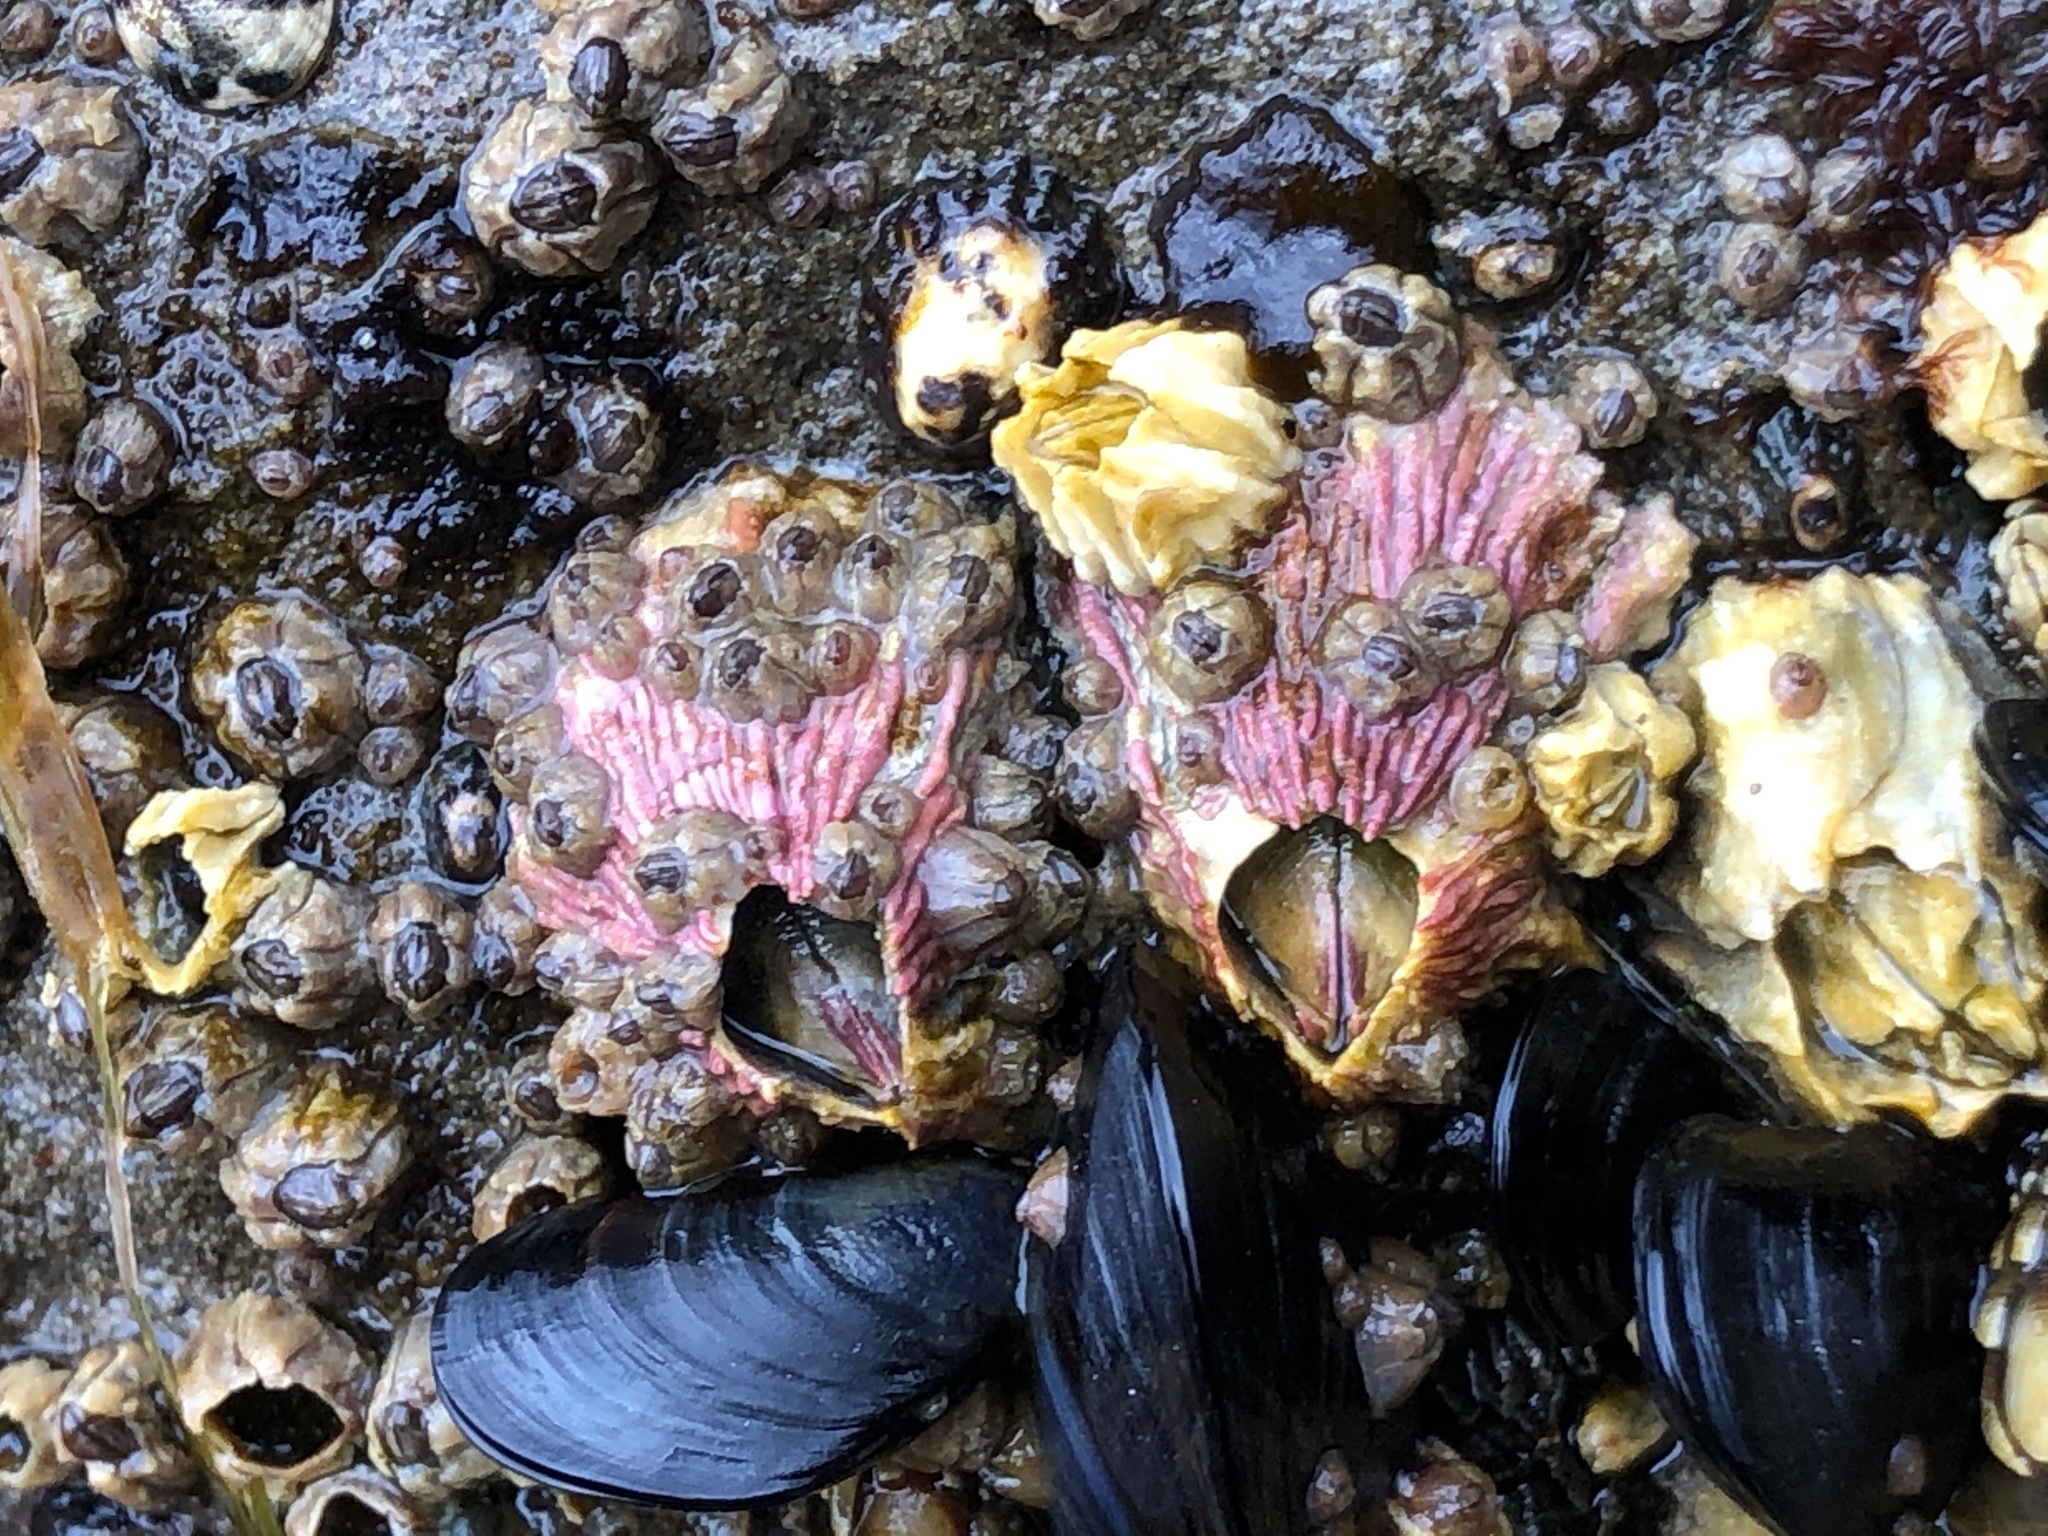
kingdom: Animalia
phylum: Arthropoda
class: Maxillopoda
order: Sessilia
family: Tetraclitidae
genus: Tetraclita
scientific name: Tetraclita rubescens
